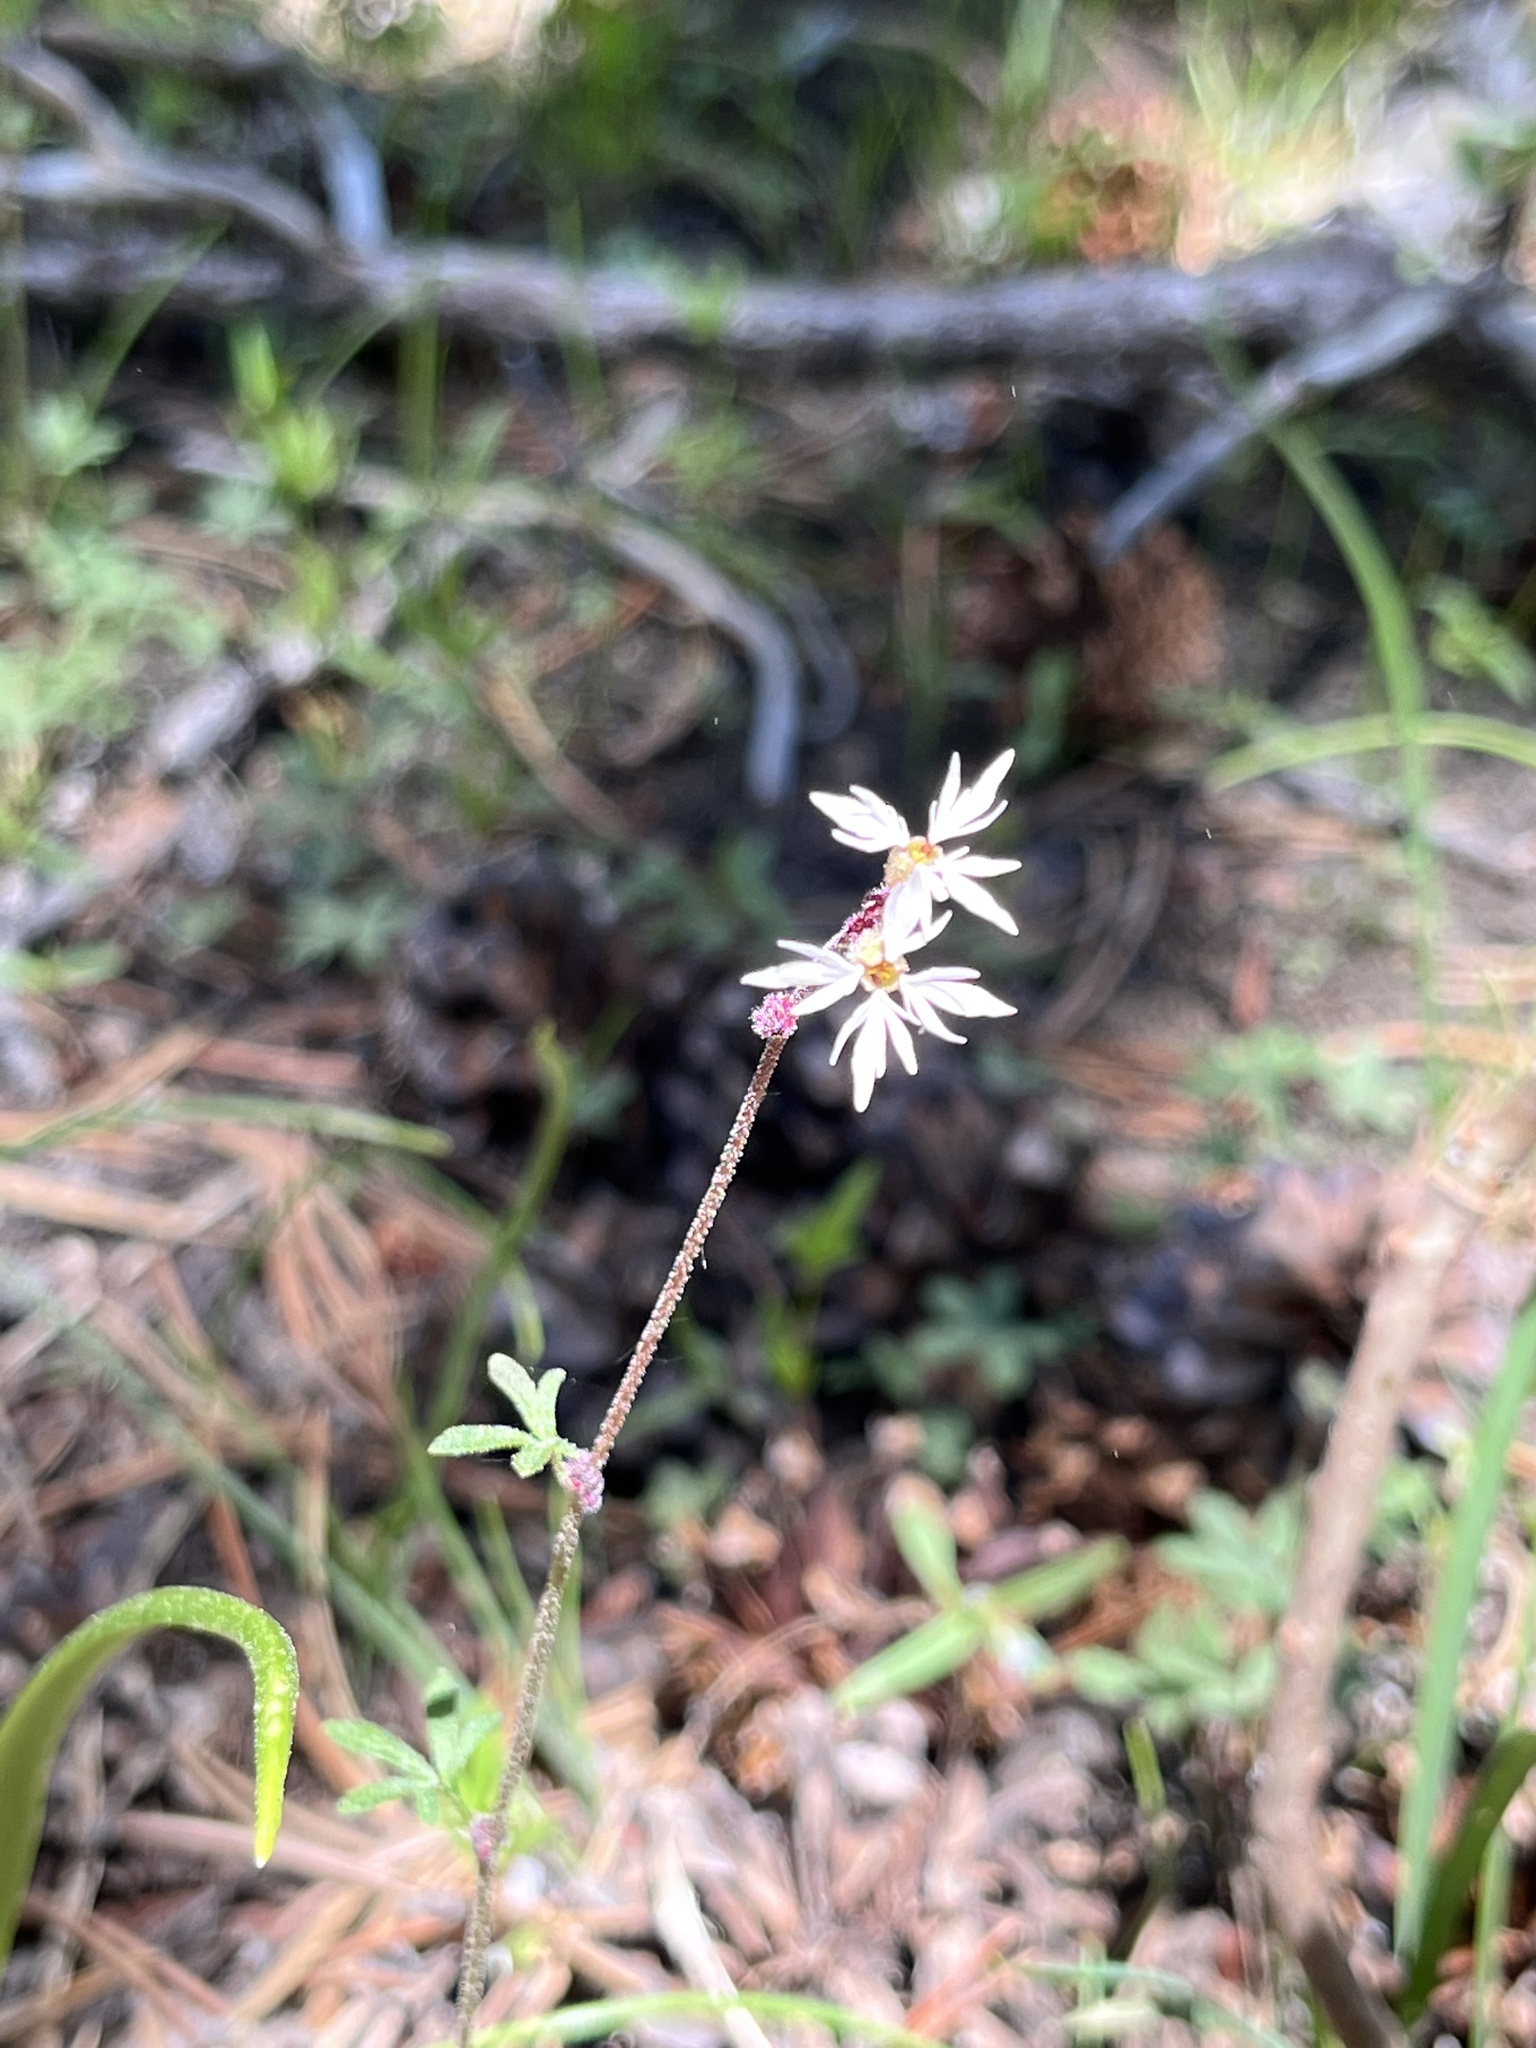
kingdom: Plantae
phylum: Tracheophyta
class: Magnoliopsida
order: Saxifragales
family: Saxifragaceae
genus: Lithophragma
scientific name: Lithophragma glabrum
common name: Bulbous prairie-star
